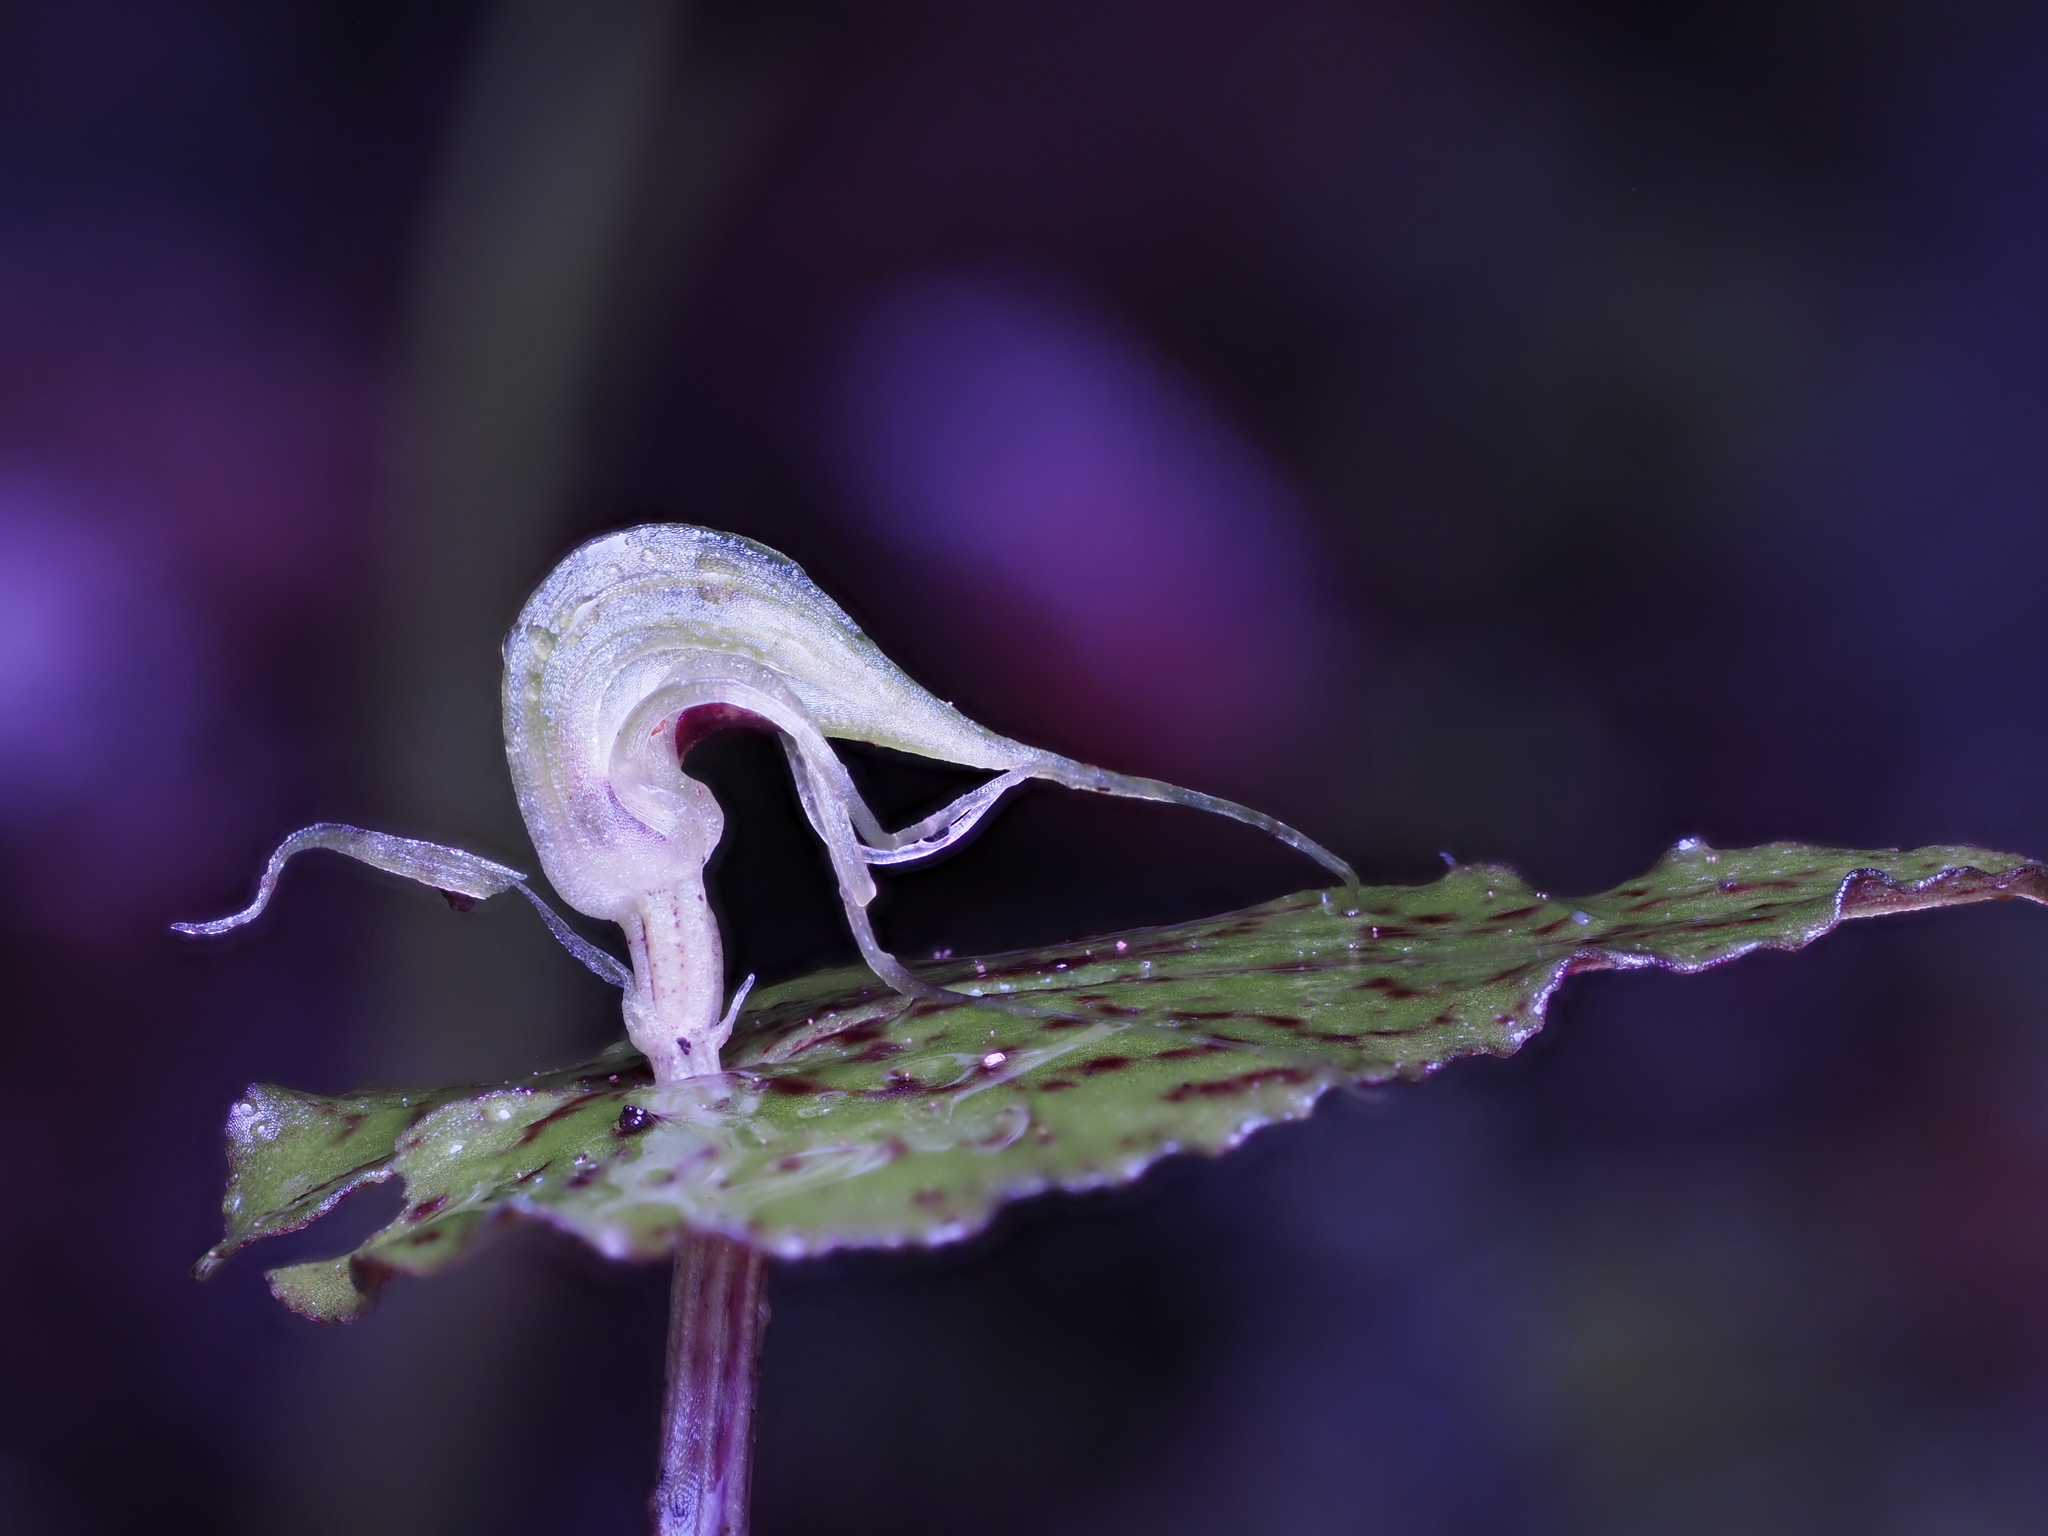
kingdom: Plantae
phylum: Tracheophyta
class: Liliopsida
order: Asparagales
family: Orchidaceae
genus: Corybas
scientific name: Corybas acuminatus
